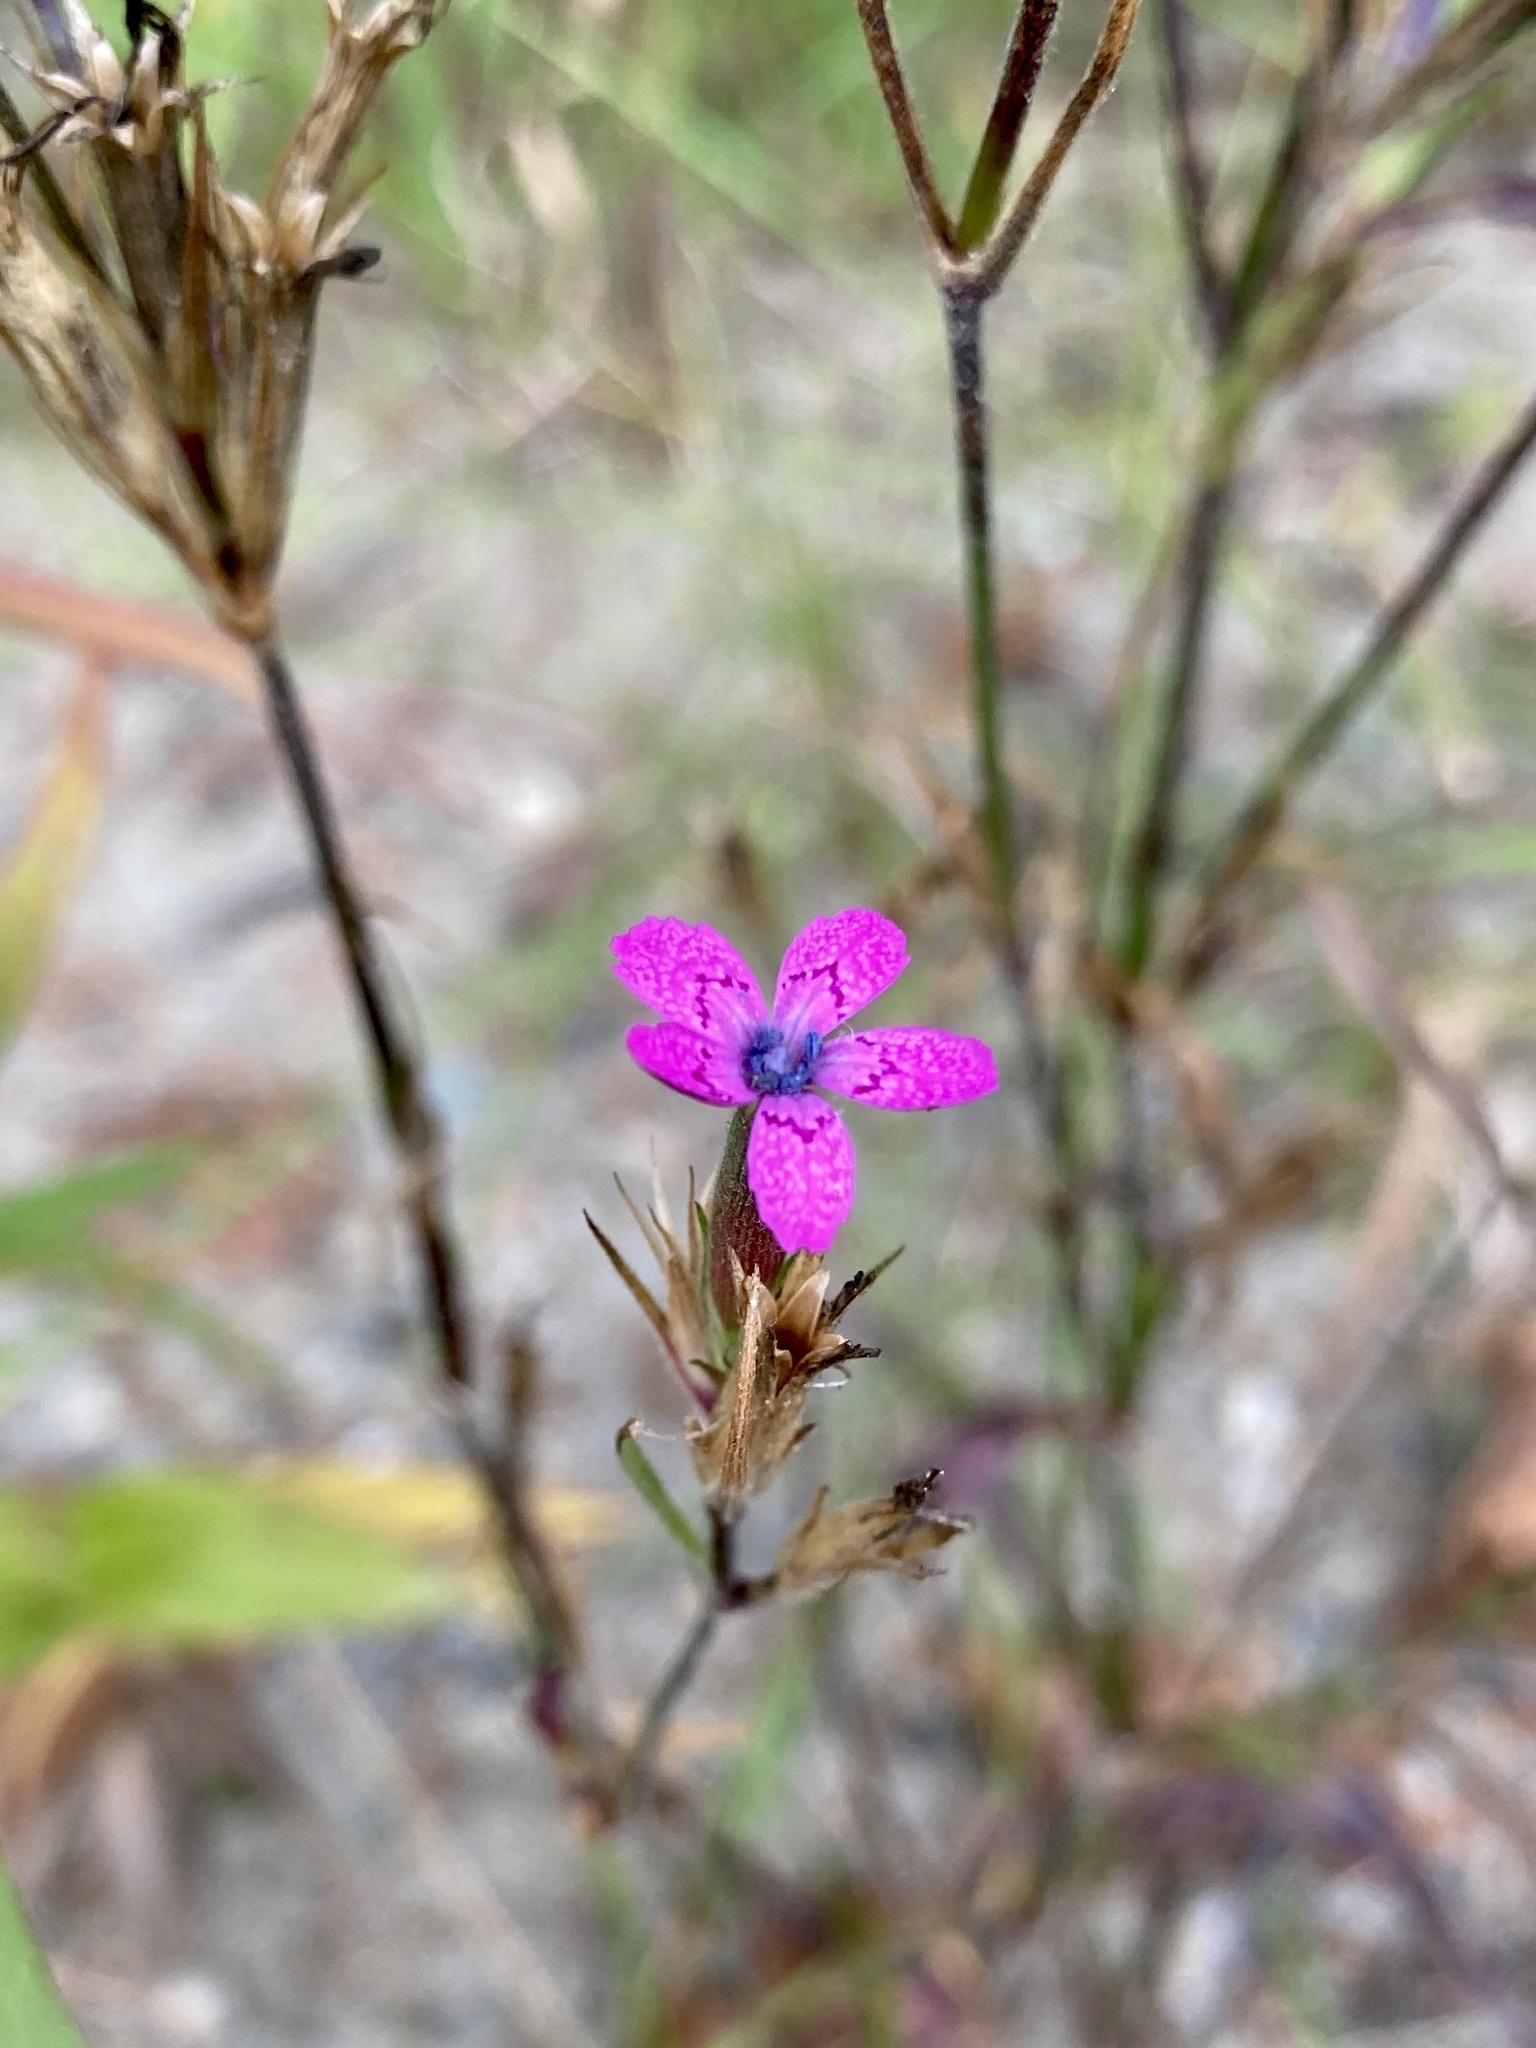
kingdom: Plantae
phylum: Tracheophyta
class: Magnoliopsida
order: Caryophyllales
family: Caryophyllaceae
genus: Dianthus
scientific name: Dianthus armeria
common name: Deptford pink
